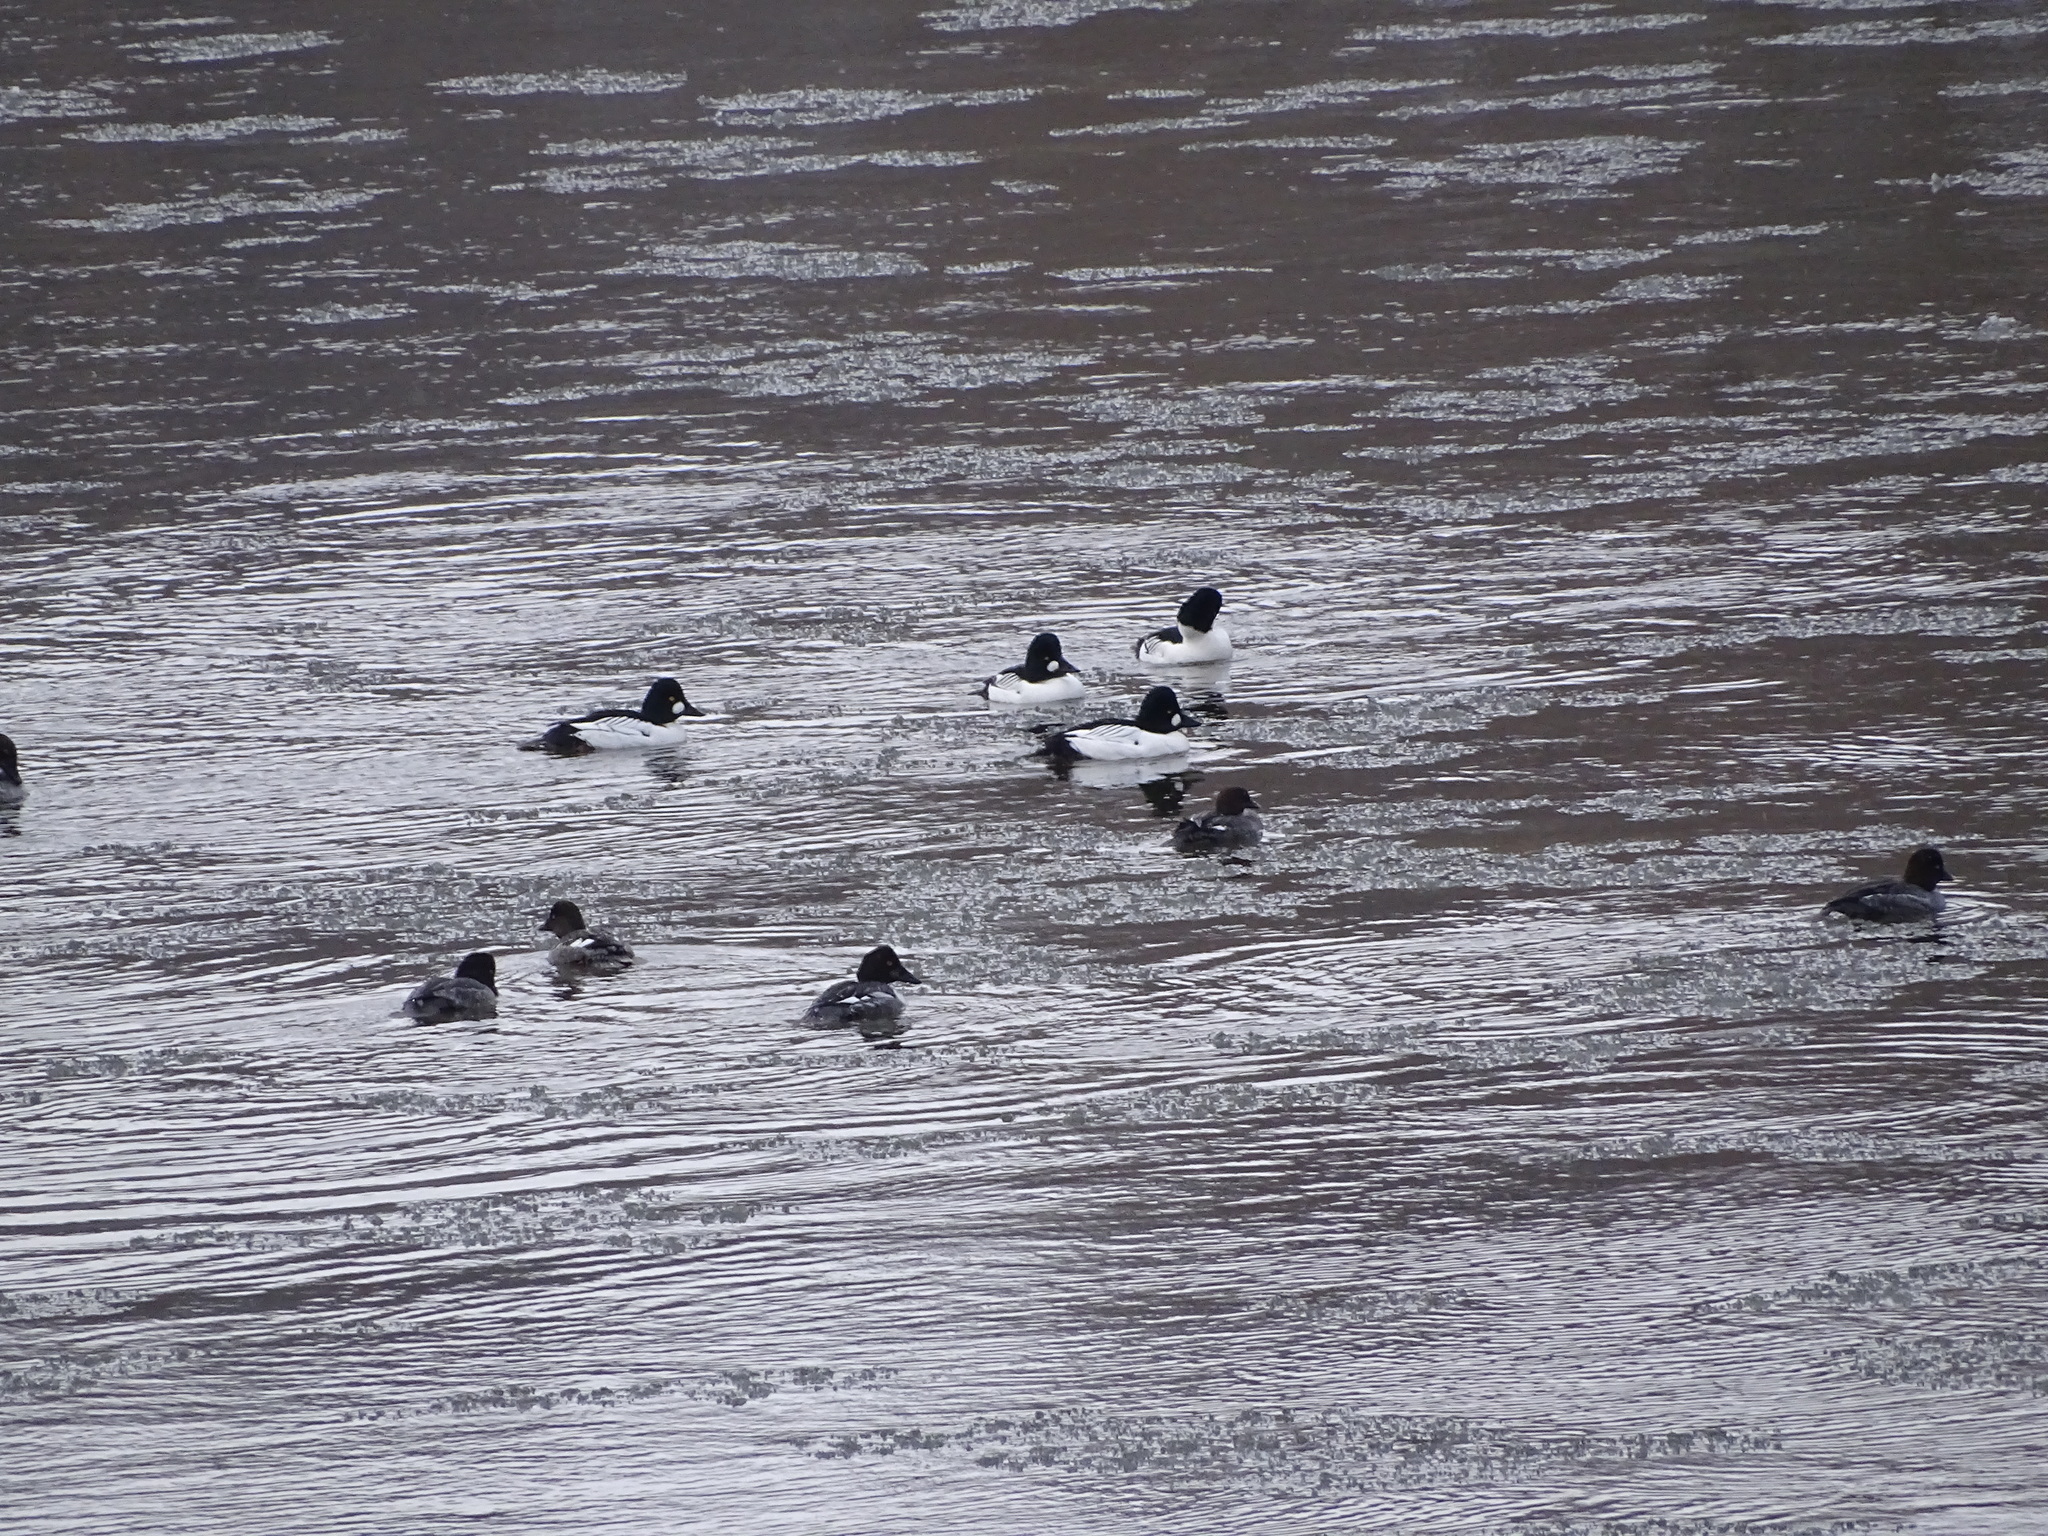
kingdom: Animalia
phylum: Chordata
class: Aves
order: Anseriformes
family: Anatidae
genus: Bucephala
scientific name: Bucephala clangula
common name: Common goldeneye
